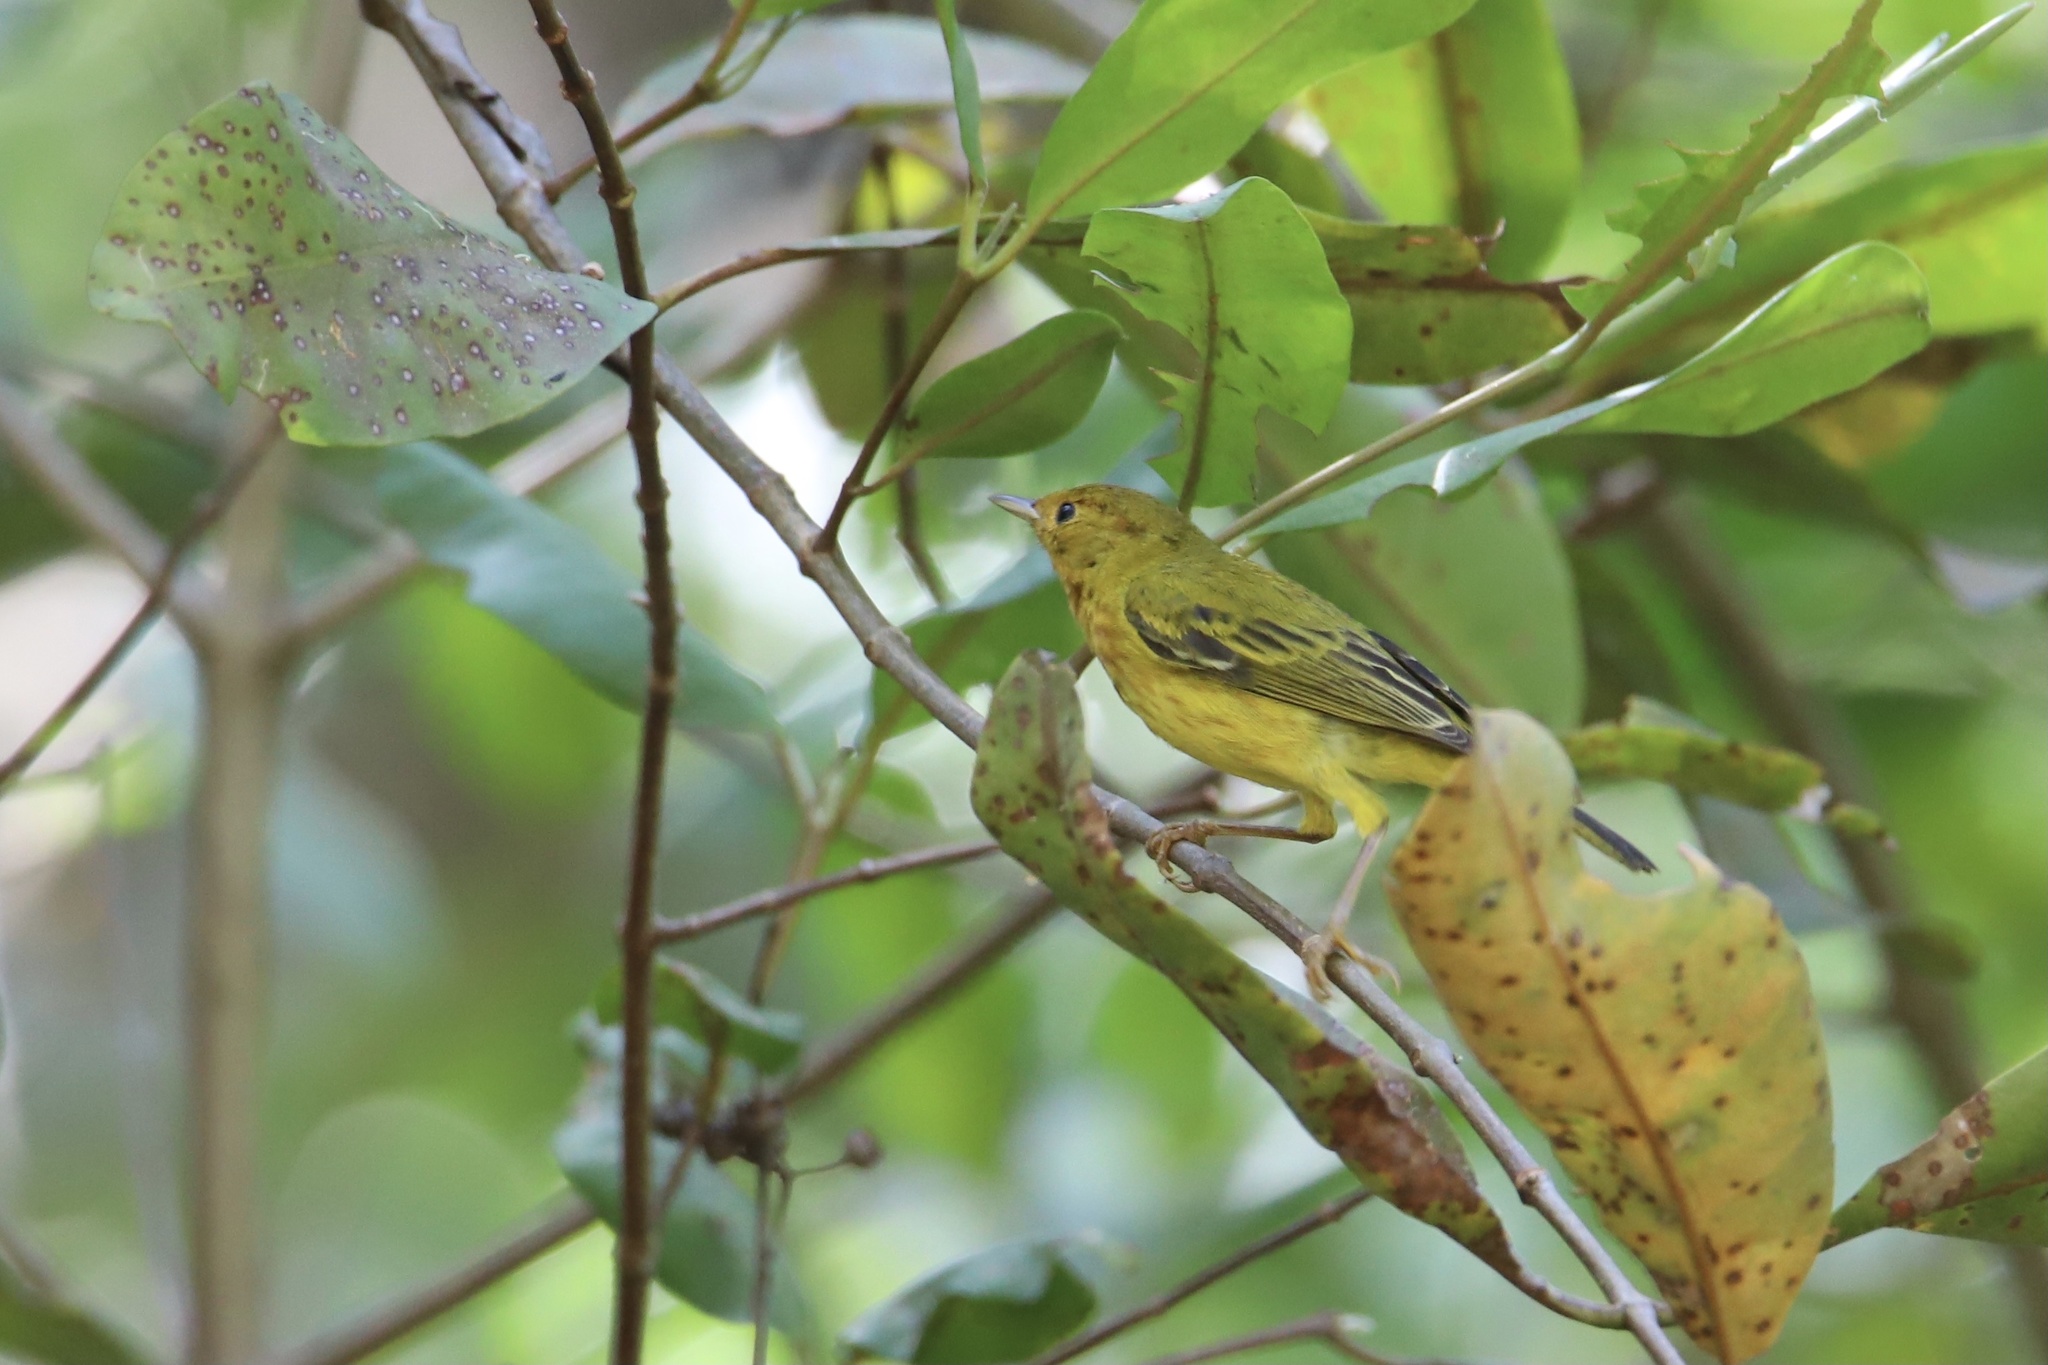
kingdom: Animalia
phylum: Chordata
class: Aves
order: Passeriformes
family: Parulidae
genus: Setophaga
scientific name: Setophaga petechia
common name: Yellow warbler
